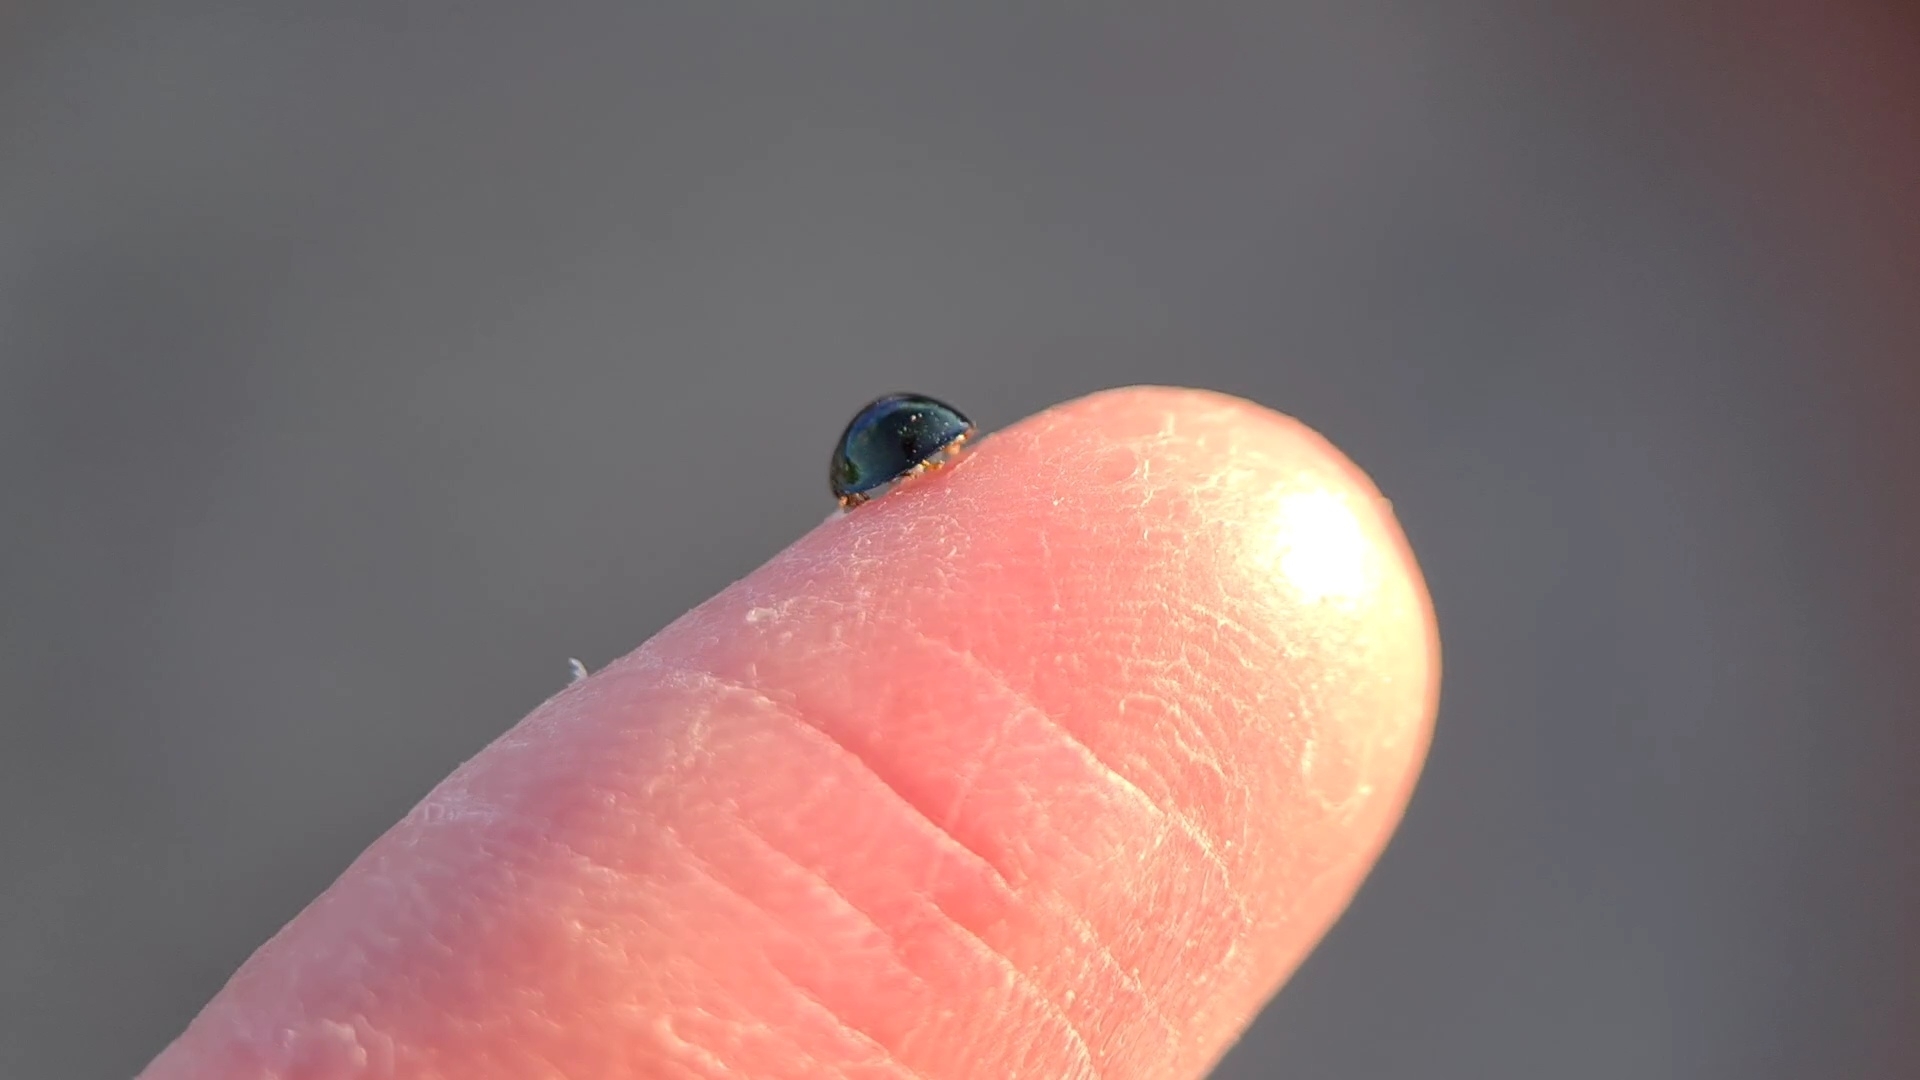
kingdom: Animalia
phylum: Arthropoda
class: Insecta
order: Coleoptera
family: Coccinellidae
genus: Halmus
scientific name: Halmus chalybeus
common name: Steel blue ladybird beetle
